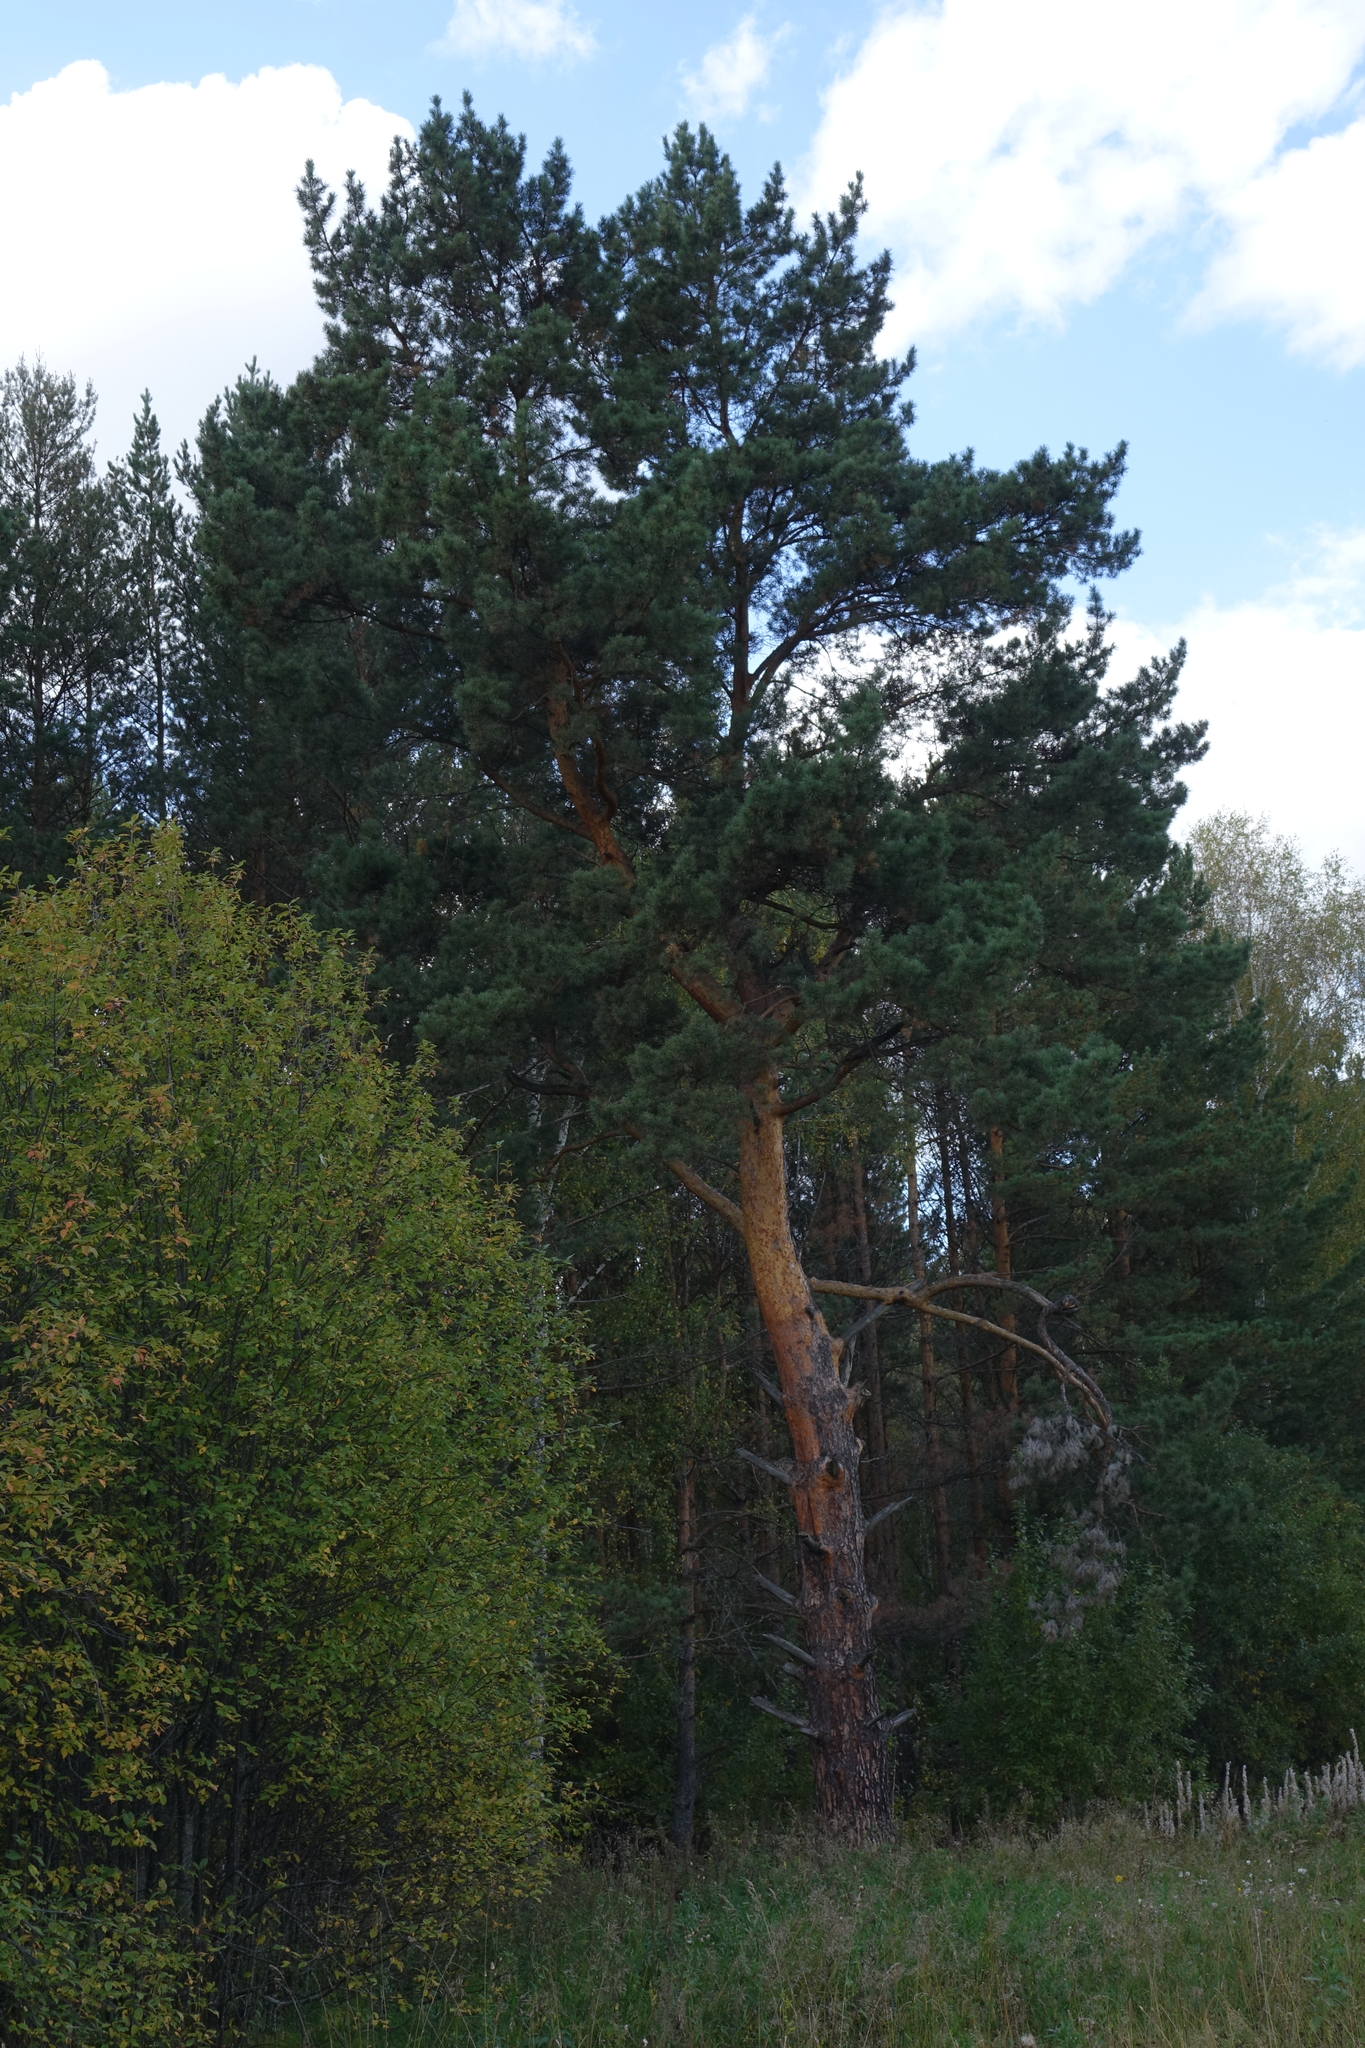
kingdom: Plantae
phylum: Tracheophyta
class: Pinopsida
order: Pinales
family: Pinaceae
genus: Pinus
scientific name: Pinus sylvestris
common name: Scots pine
